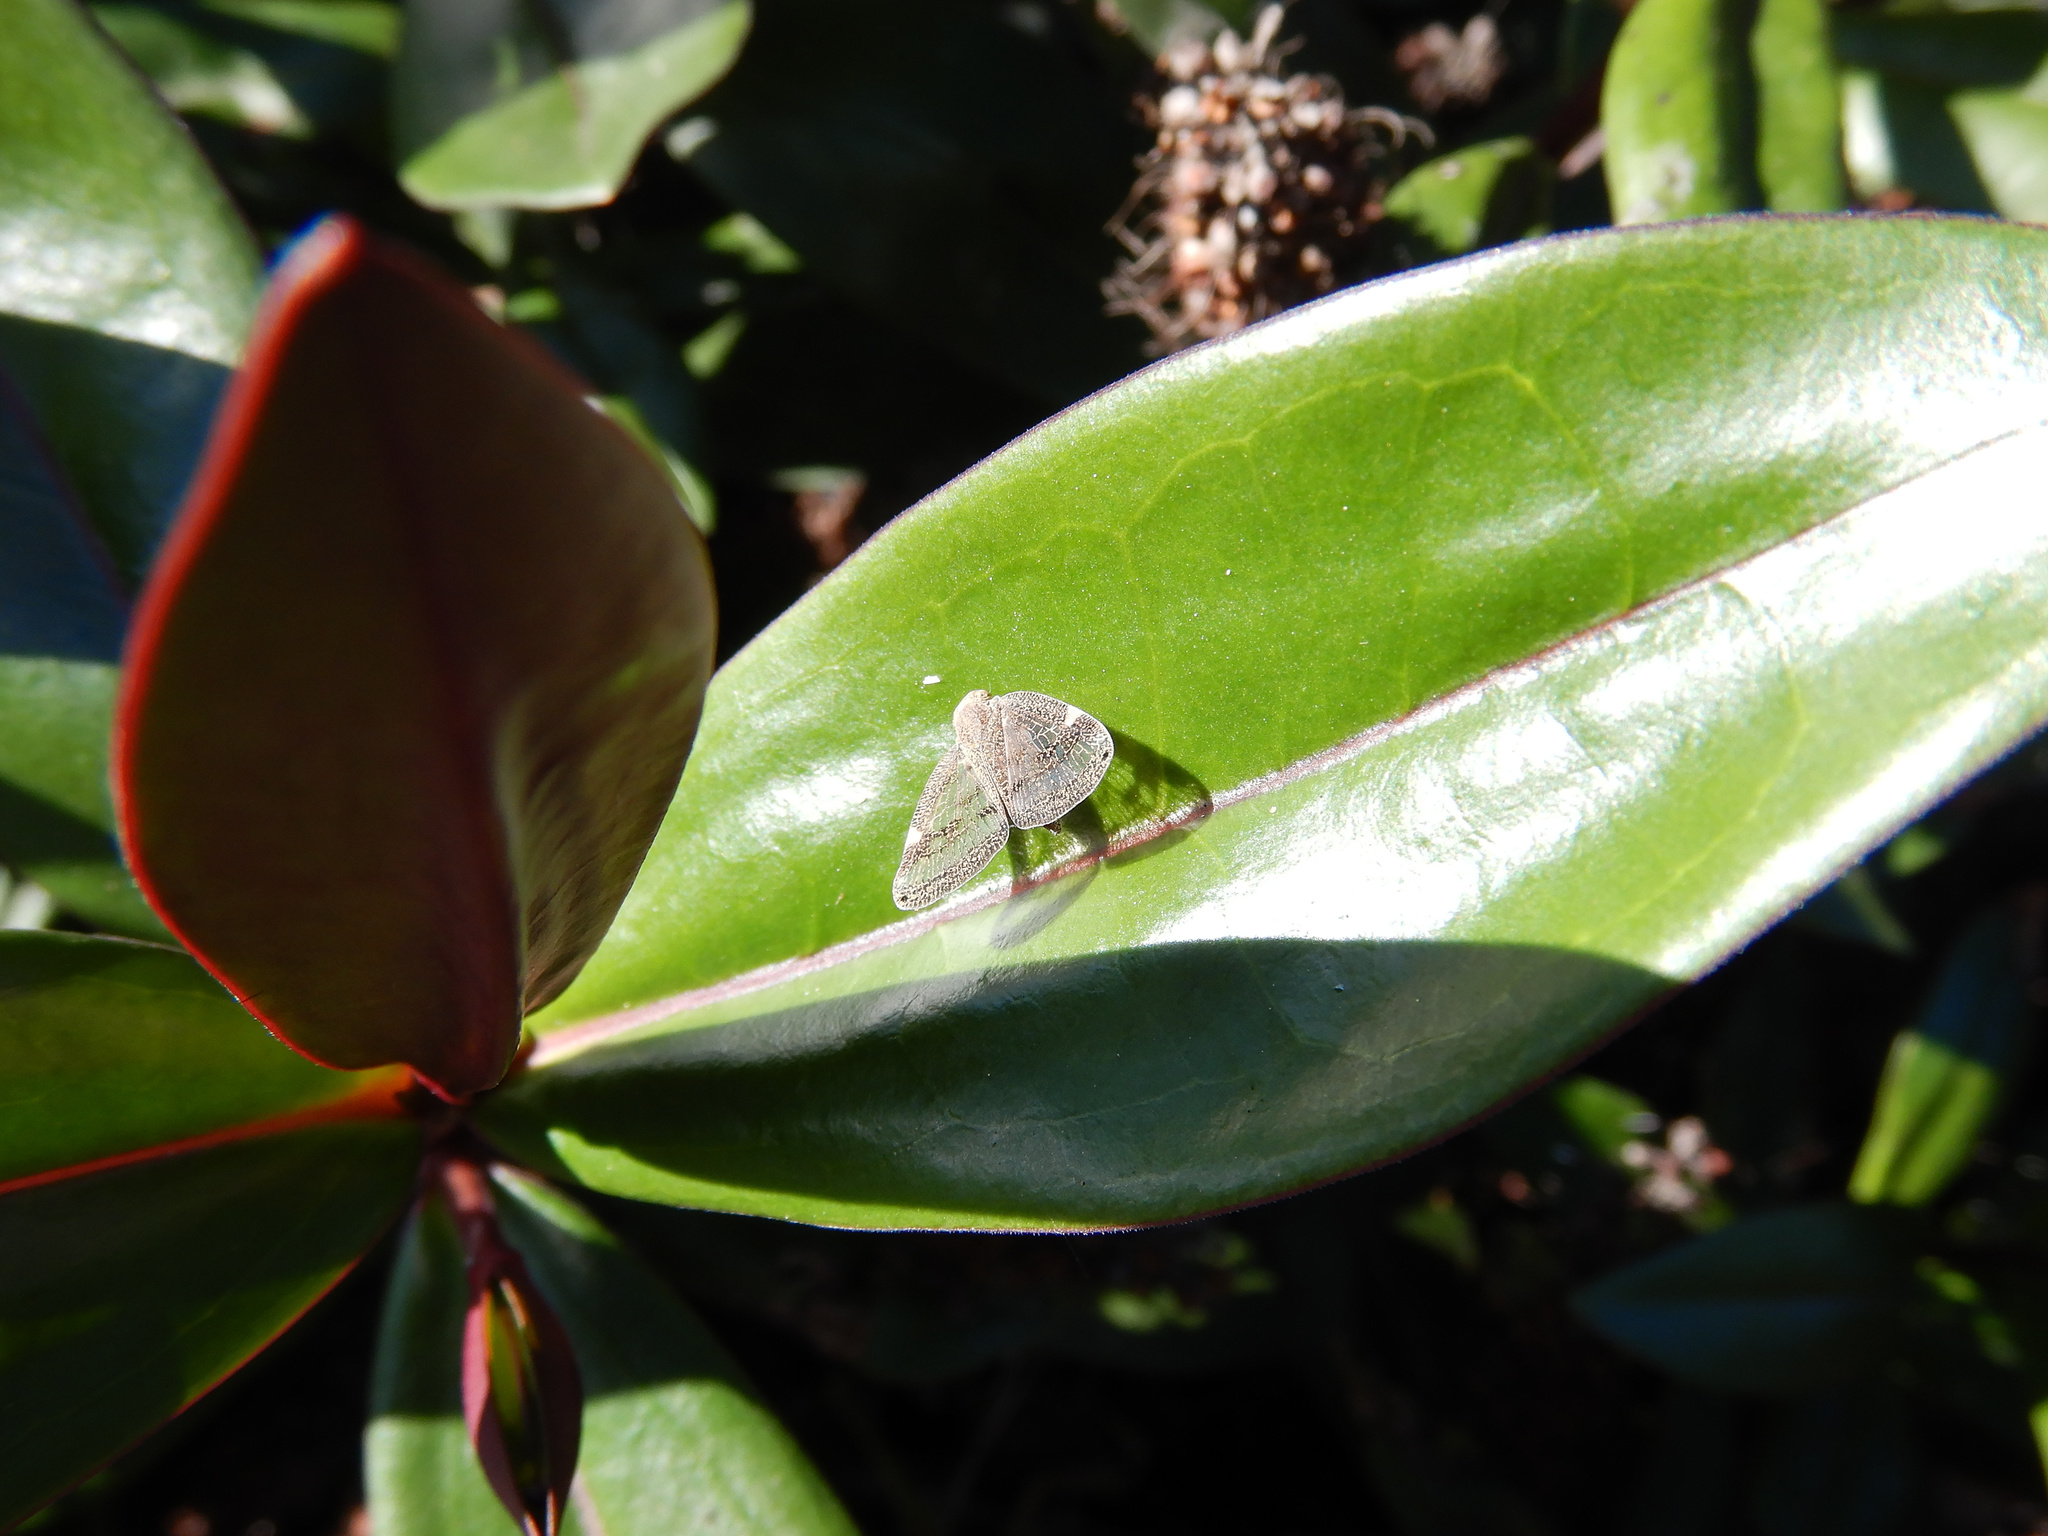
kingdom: Animalia
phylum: Arthropoda
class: Insecta
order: Hemiptera
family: Ricaniidae
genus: Scolypopa
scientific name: Scolypopa australis
